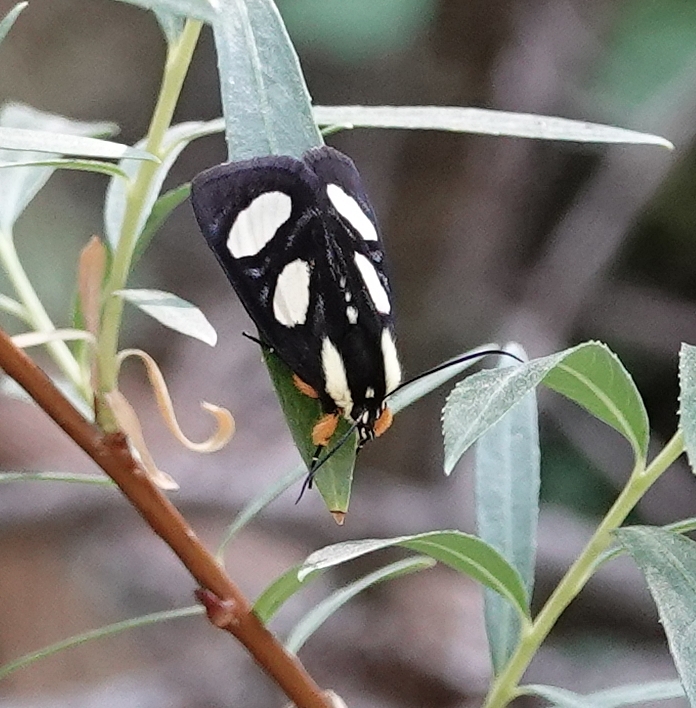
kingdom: Animalia
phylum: Arthropoda
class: Insecta
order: Lepidoptera
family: Noctuidae
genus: Alypia
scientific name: Alypia octomaculata
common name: Eight-spotted forester
